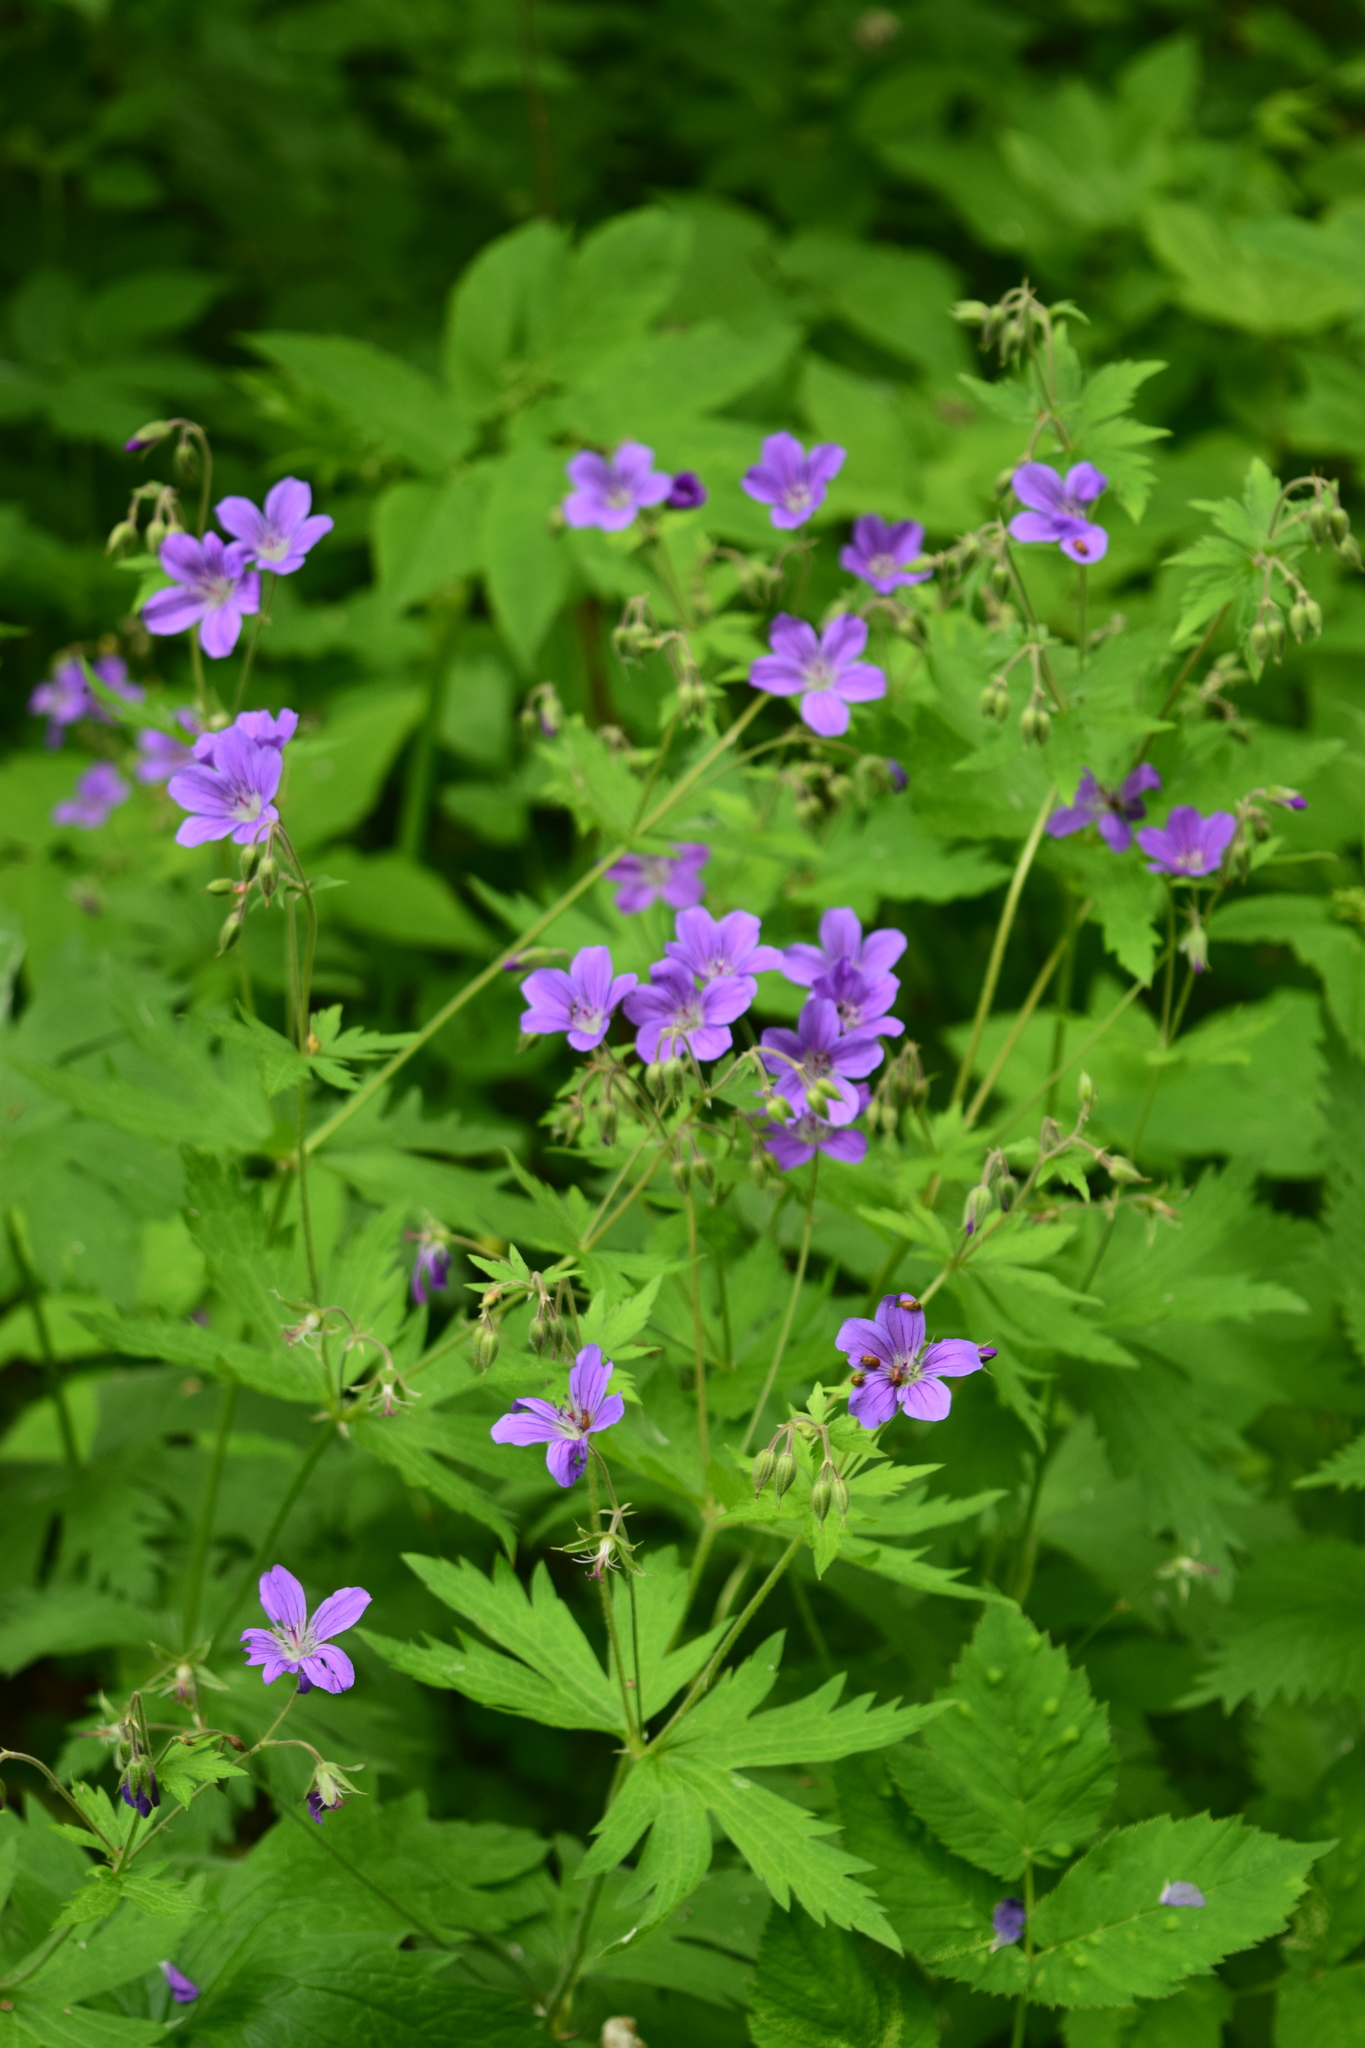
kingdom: Plantae
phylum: Tracheophyta
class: Magnoliopsida
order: Geraniales
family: Geraniaceae
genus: Geranium
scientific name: Geranium sylvaticum
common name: Wood crane's-bill
